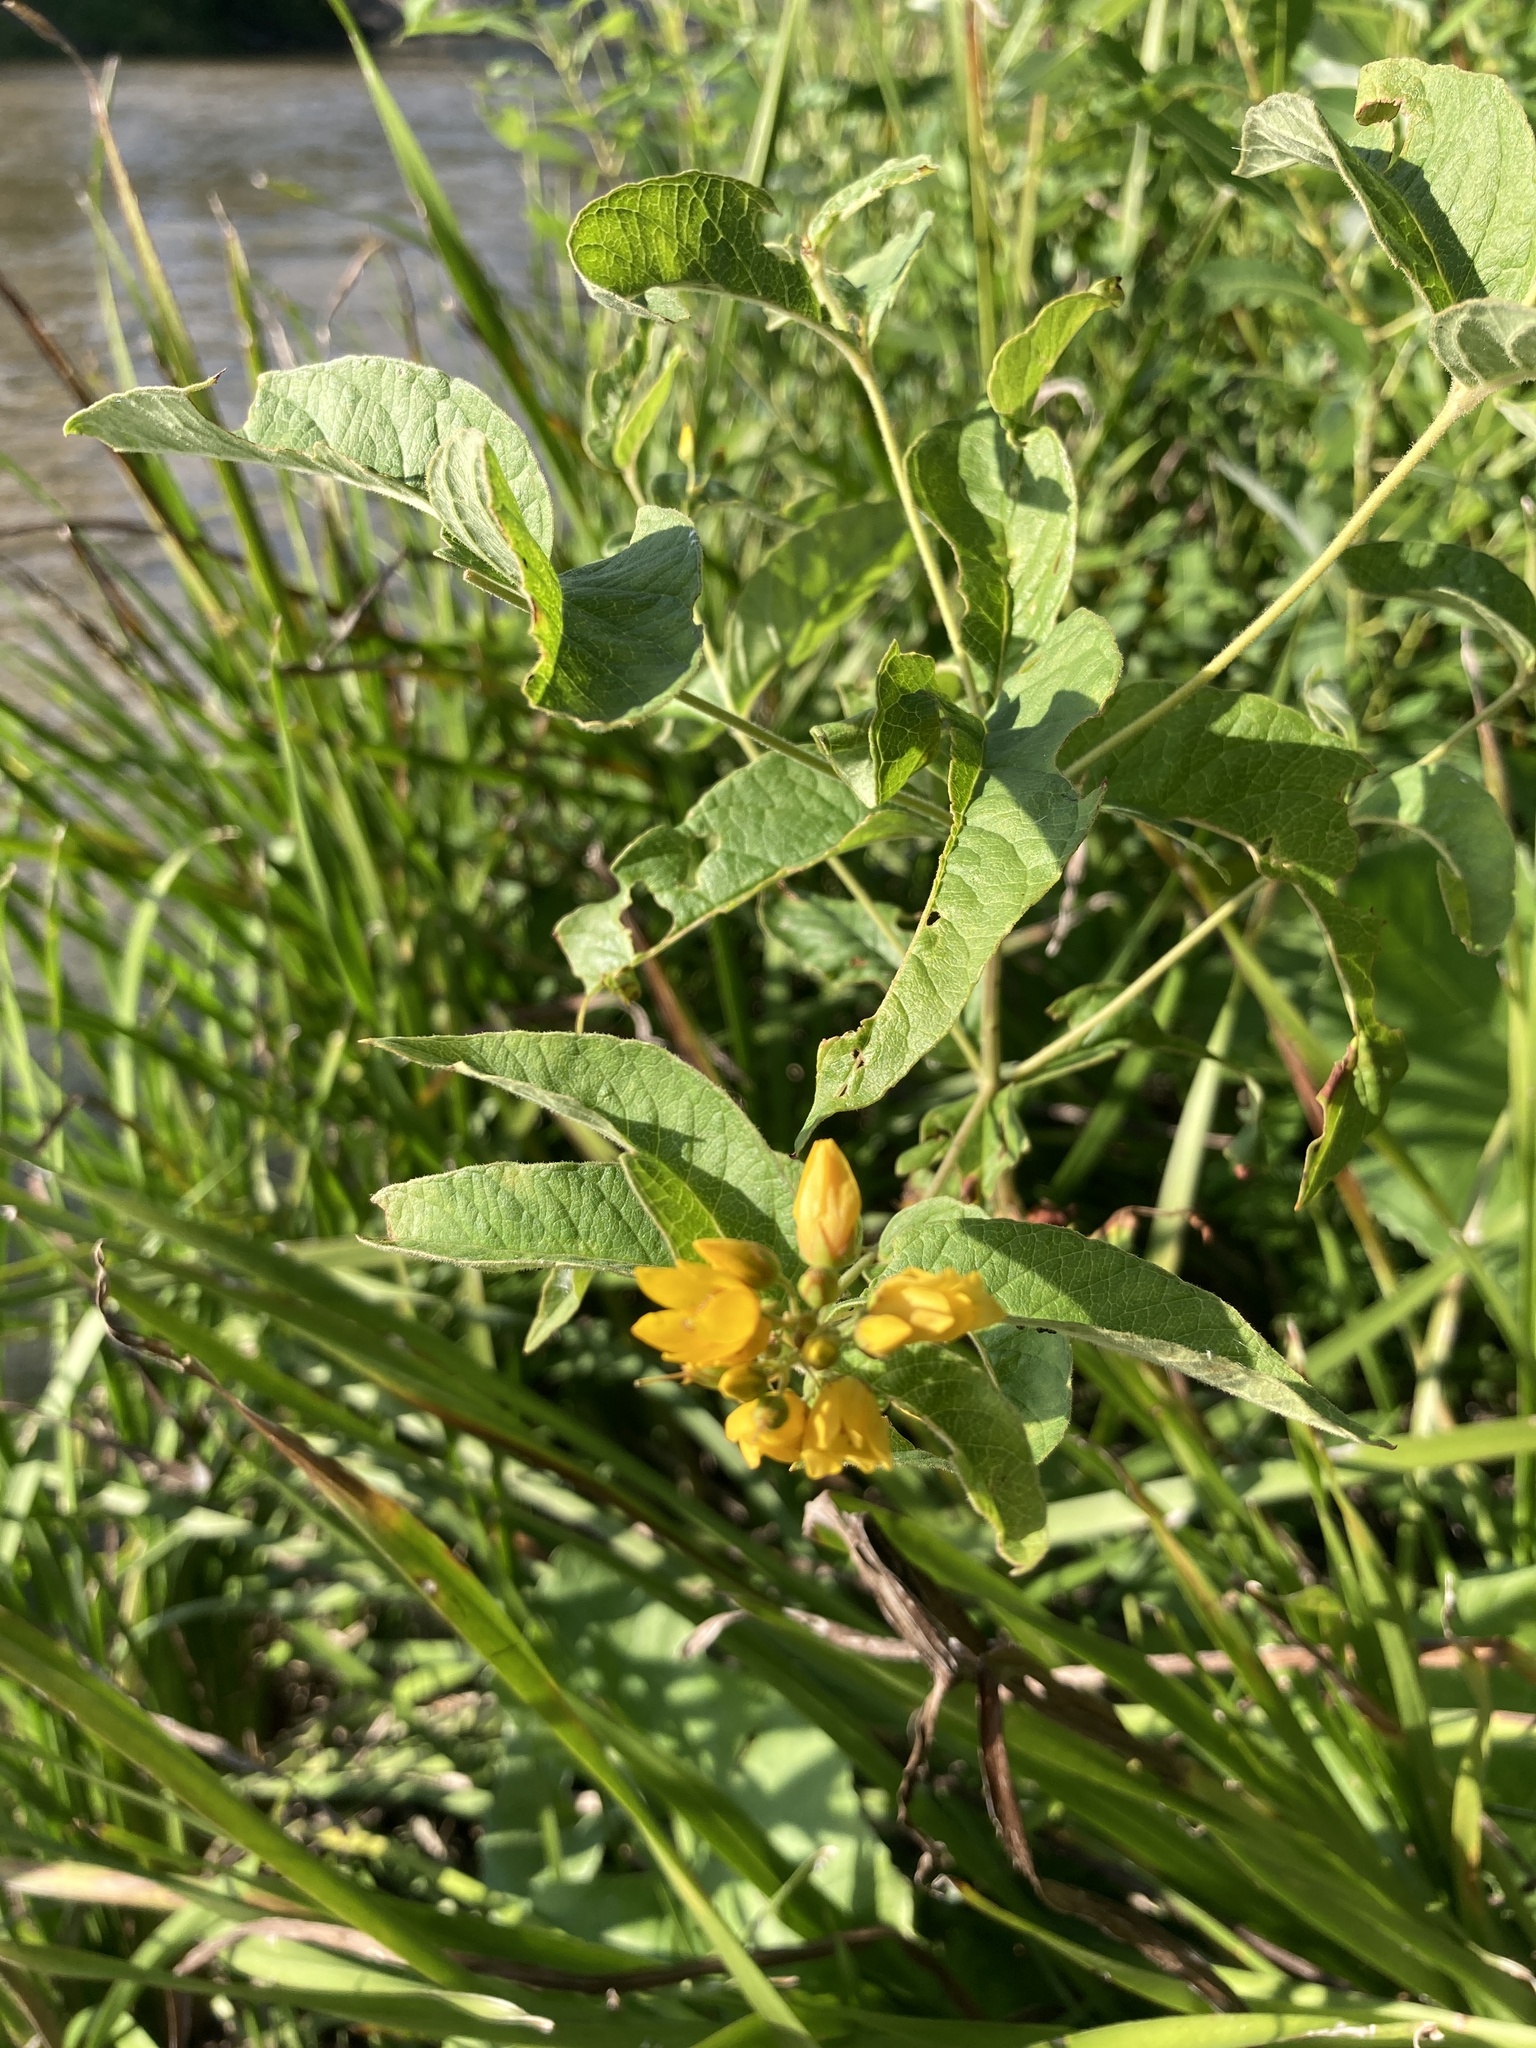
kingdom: Plantae
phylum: Tracheophyta
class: Magnoliopsida
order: Ericales
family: Primulaceae
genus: Lysimachia
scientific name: Lysimachia vulgaris
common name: Yellow loosestrife
